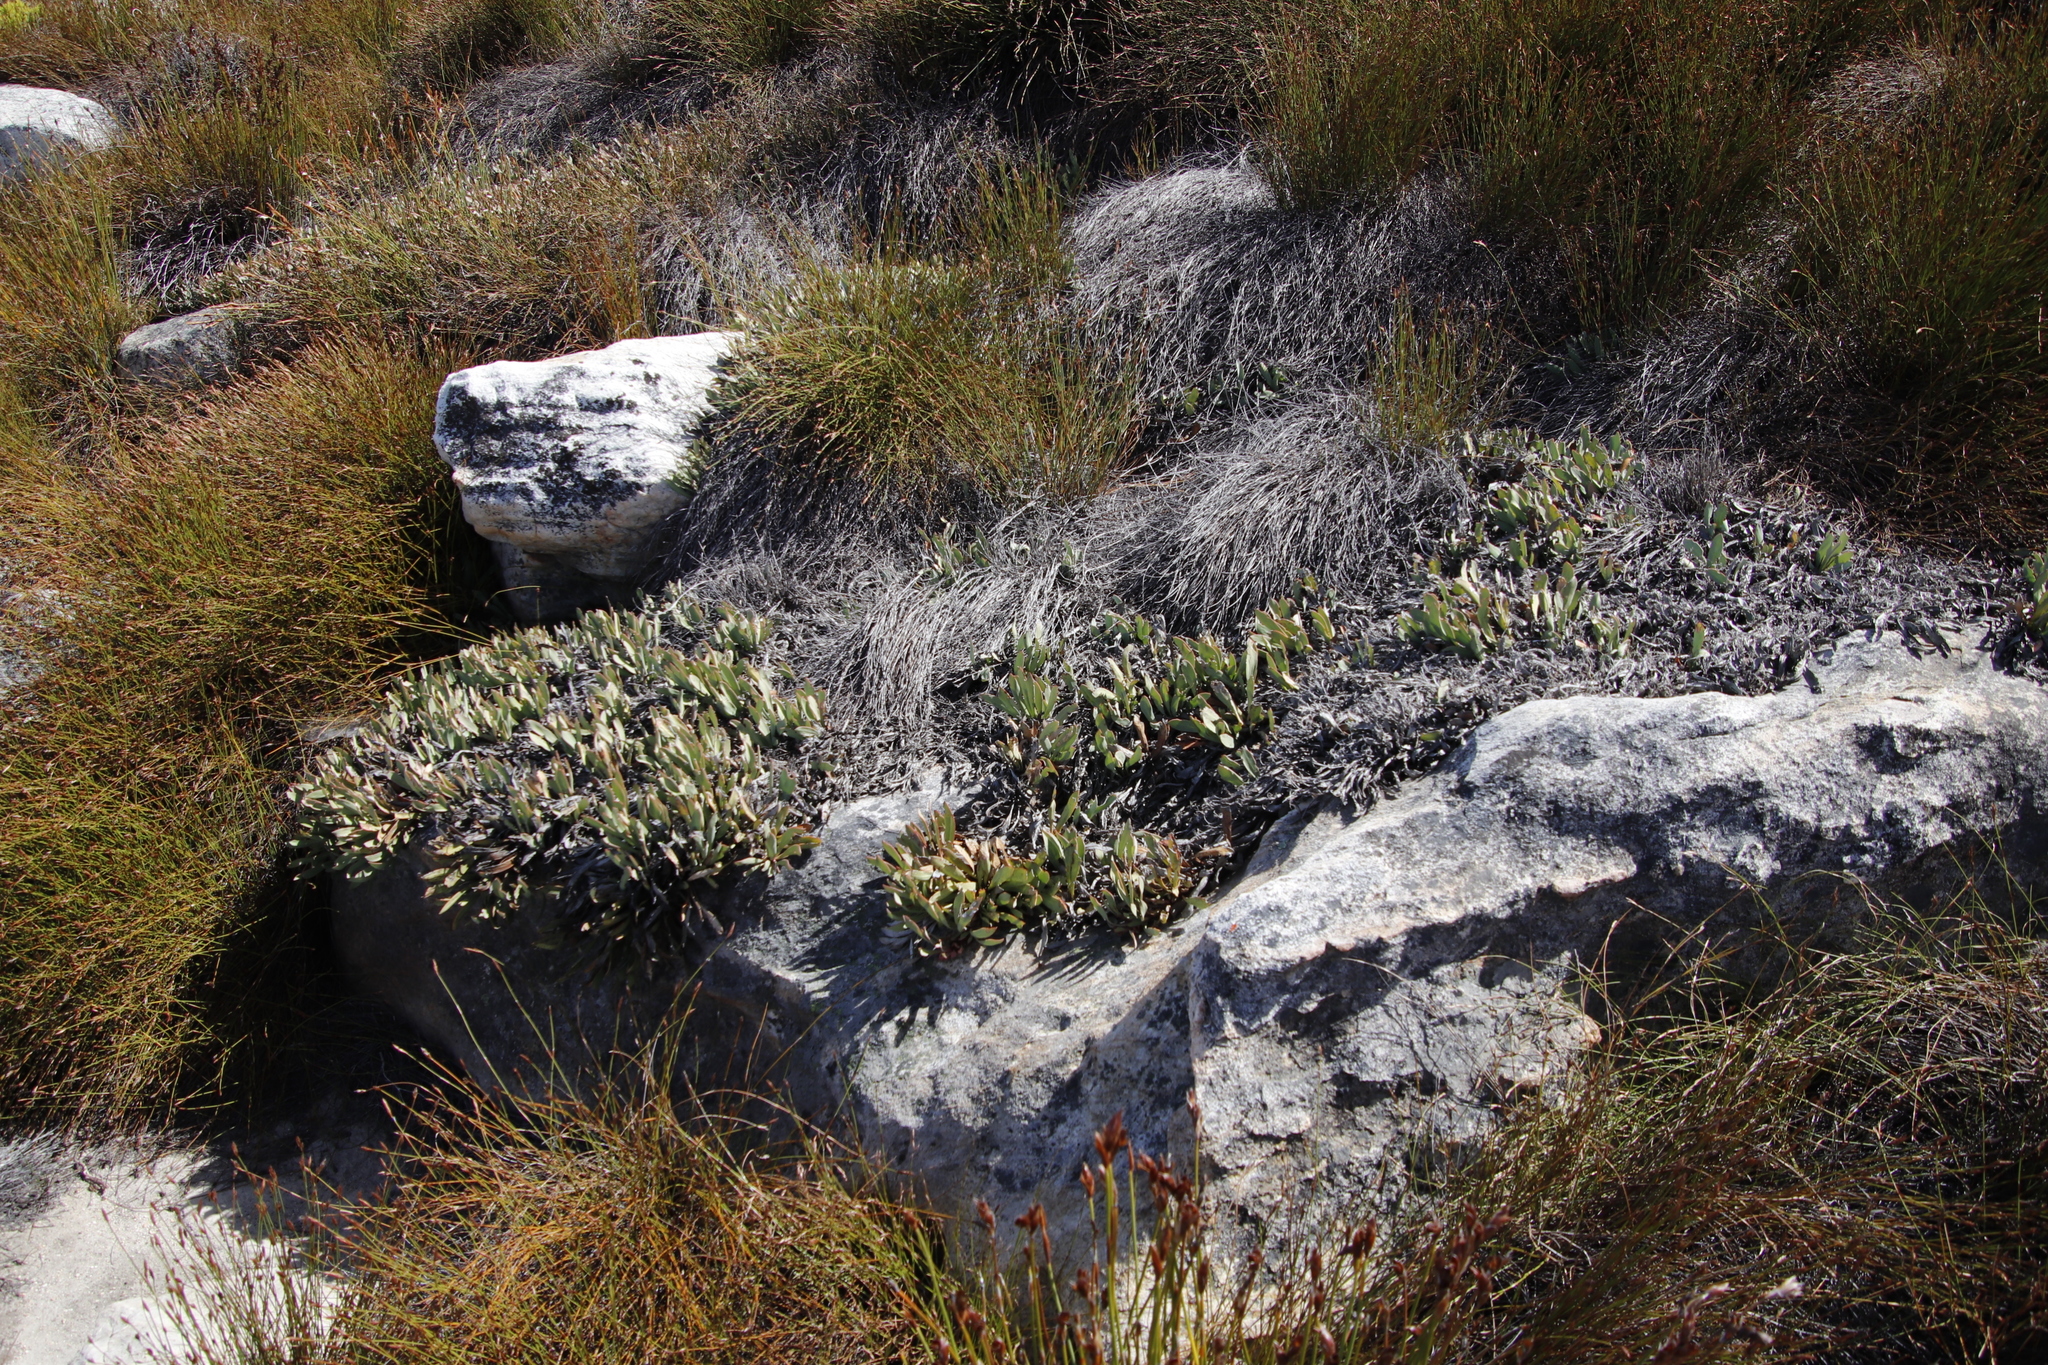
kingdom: Plantae
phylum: Tracheophyta
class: Magnoliopsida
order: Proteales
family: Proteaceae
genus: Protea
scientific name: Protea laevis
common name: Smooth-leaf sugarbush
